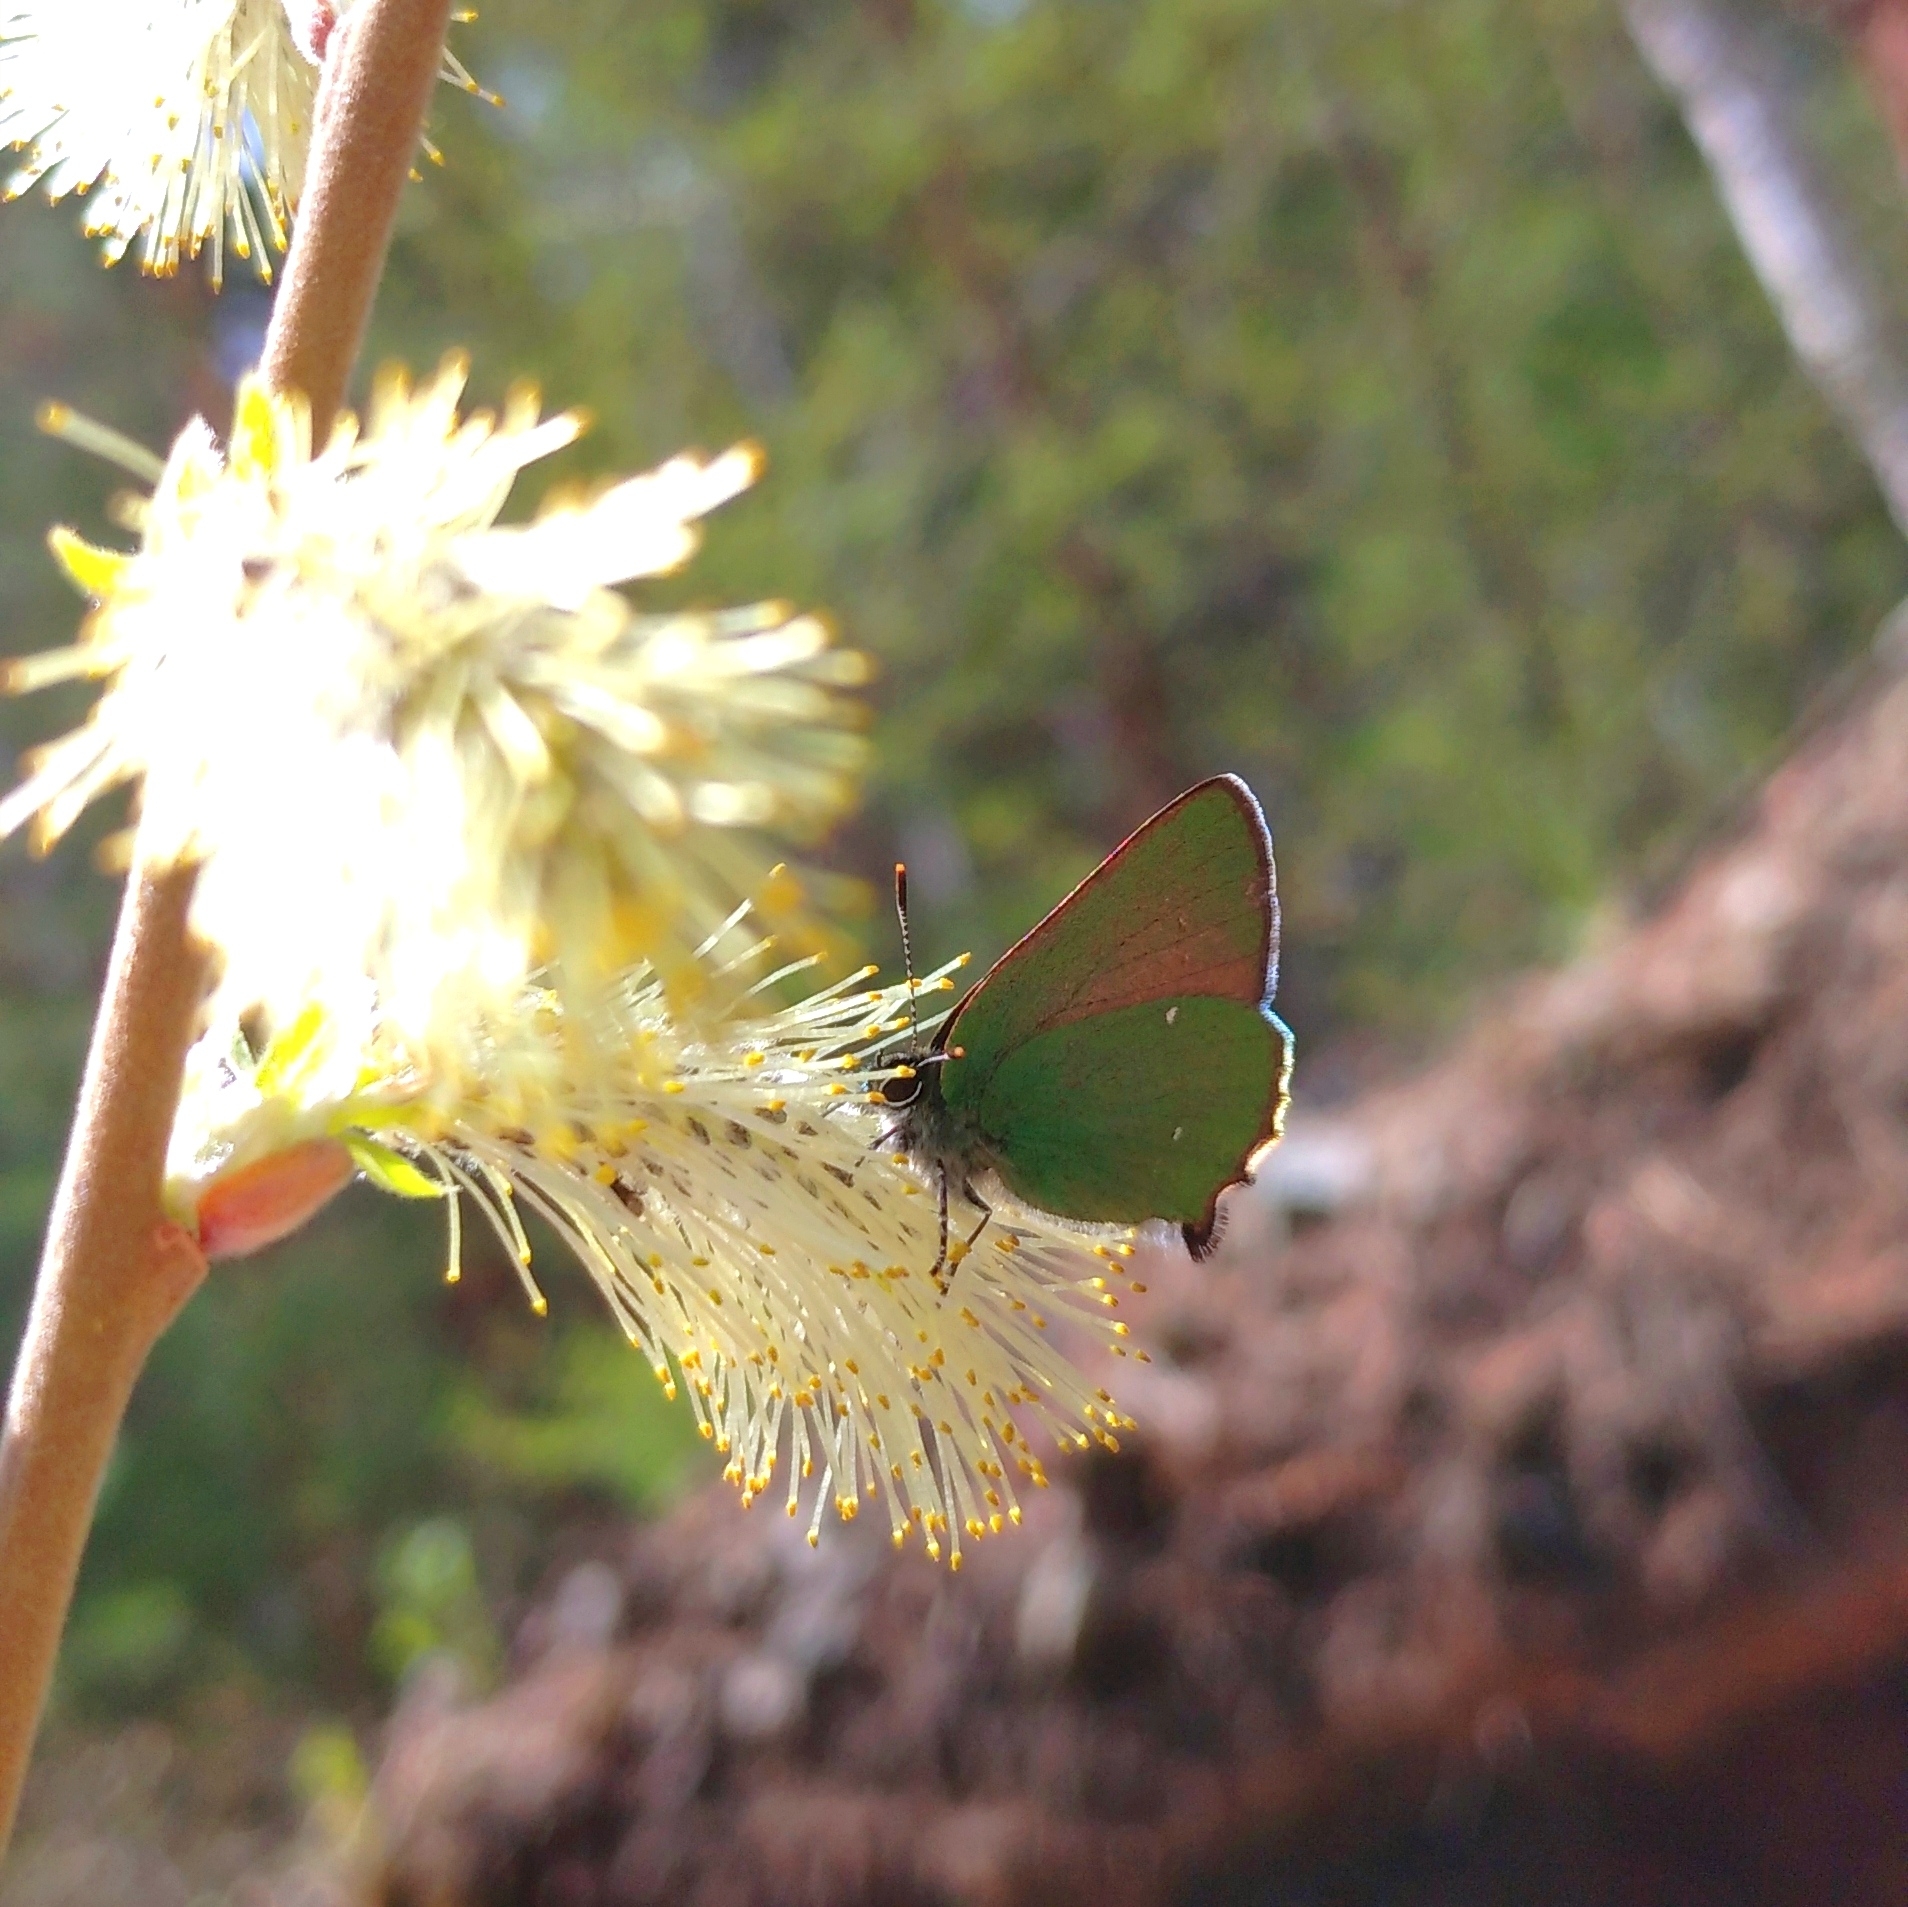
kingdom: Animalia
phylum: Arthropoda
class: Insecta
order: Lepidoptera
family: Lycaenidae
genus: Callophrys
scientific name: Callophrys rubi
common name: Green hairstreak
